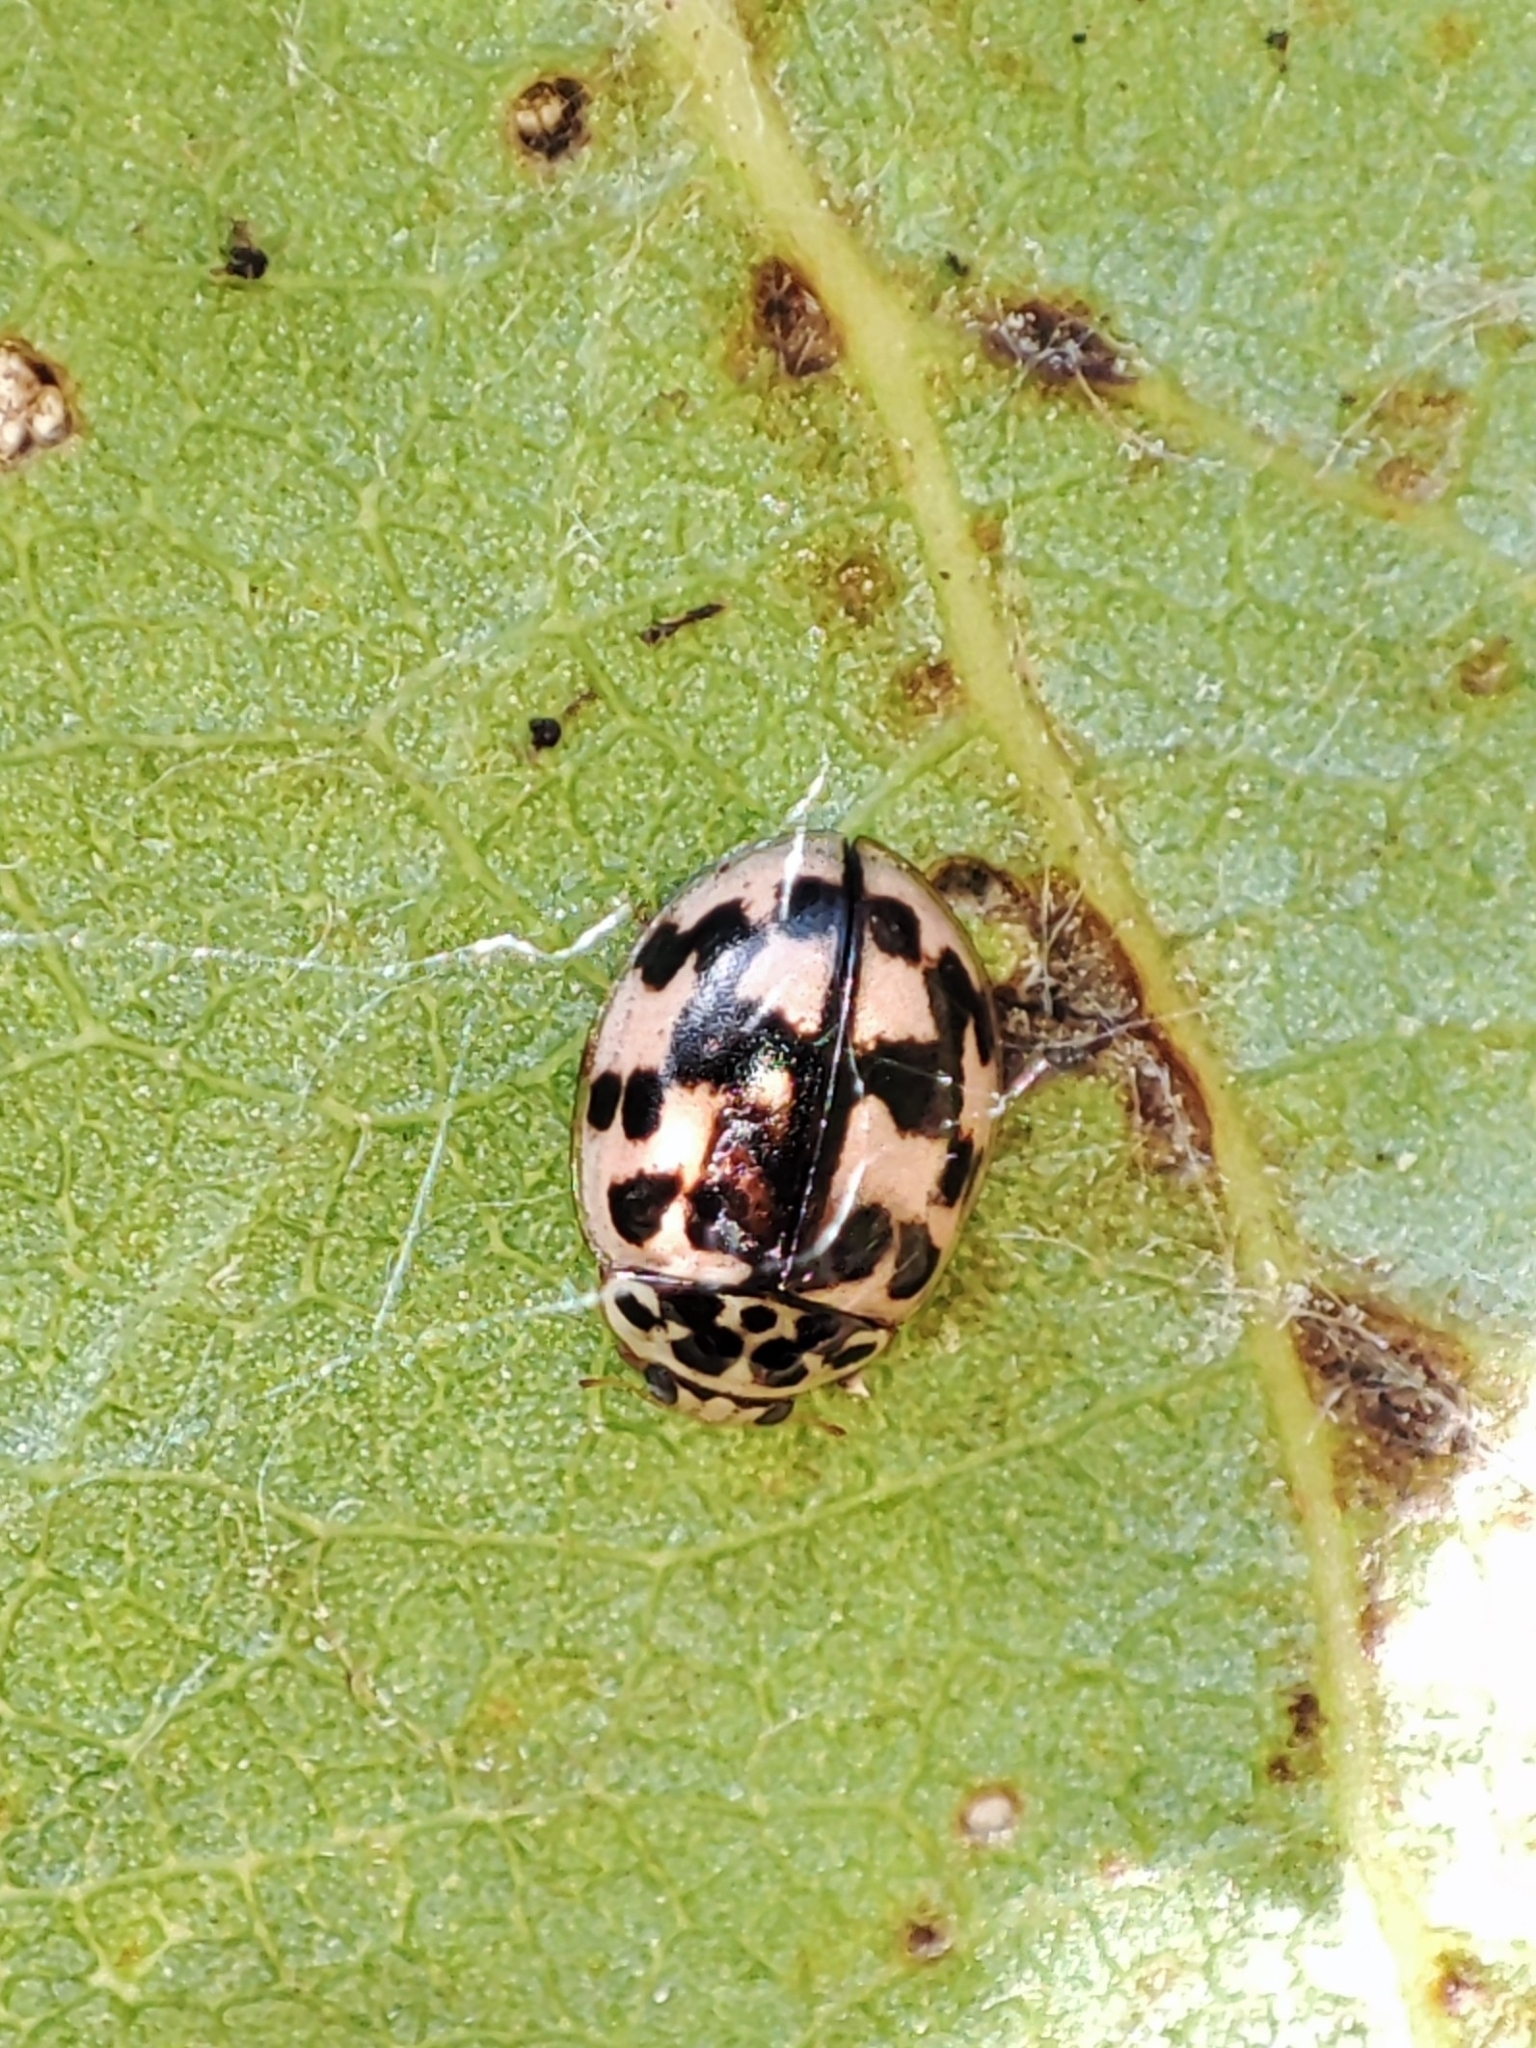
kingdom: Animalia
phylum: Arthropoda
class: Insecta
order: Coleoptera
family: Coccinellidae
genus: Oenopia
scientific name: Oenopia conglobata
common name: Ladybird beetle
